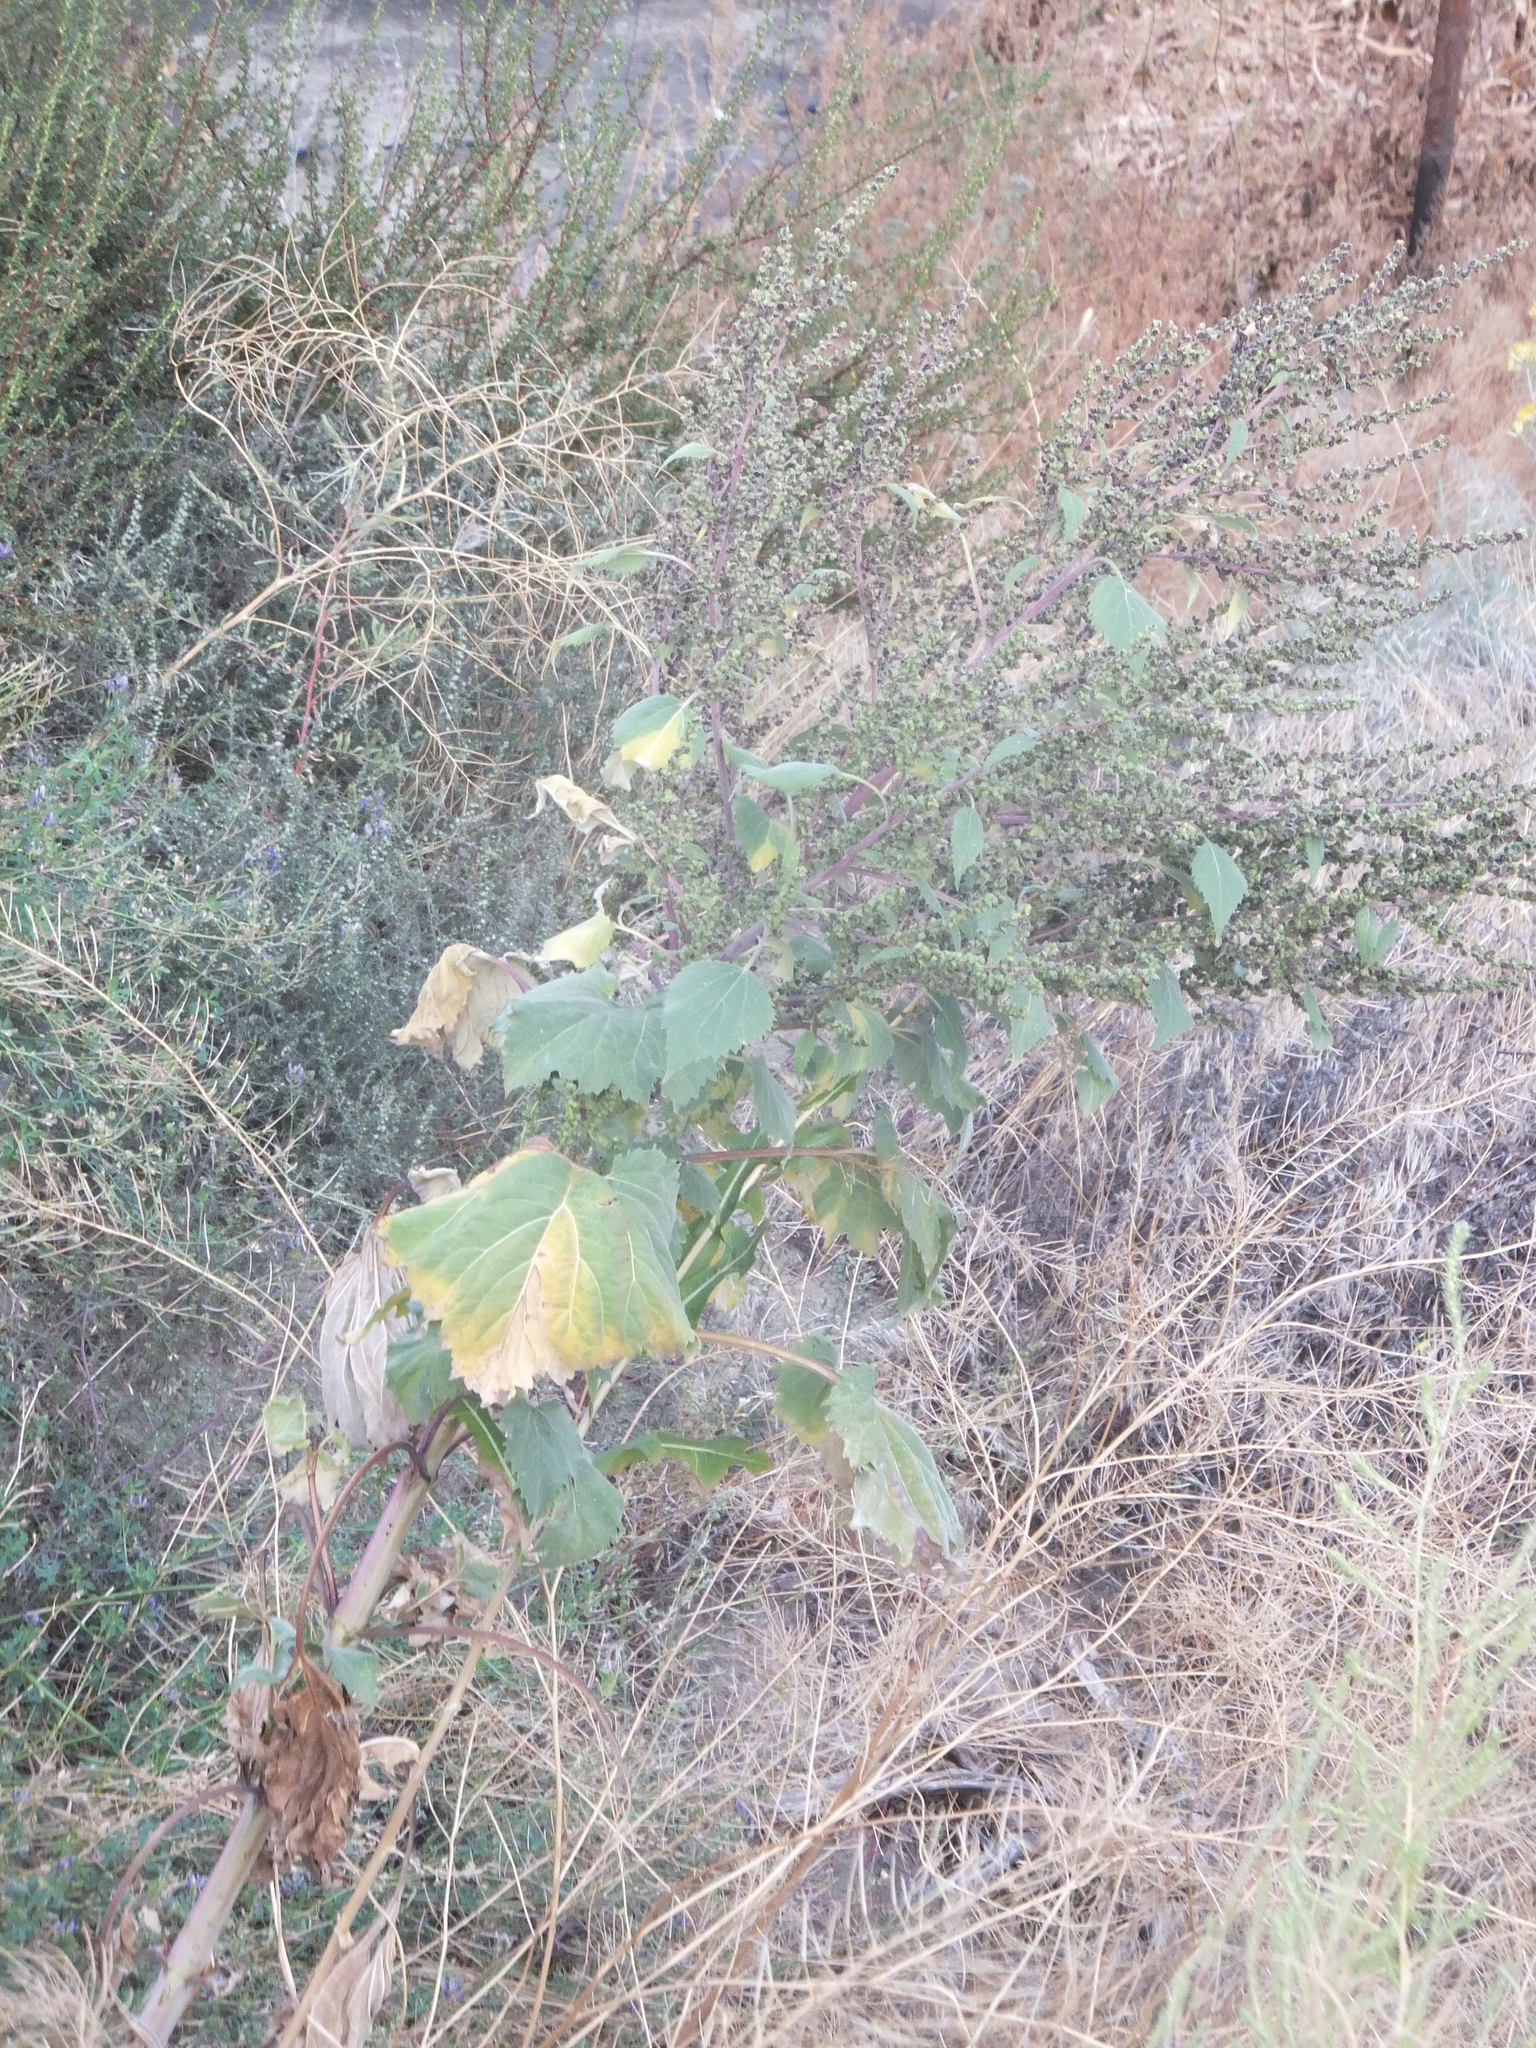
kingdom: Plantae
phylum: Tracheophyta
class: Magnoliopsida
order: Asterales
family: Asteraceae
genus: Cyclachaena
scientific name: Cyclachaena xanthiifolia
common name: Giant sumpweed
